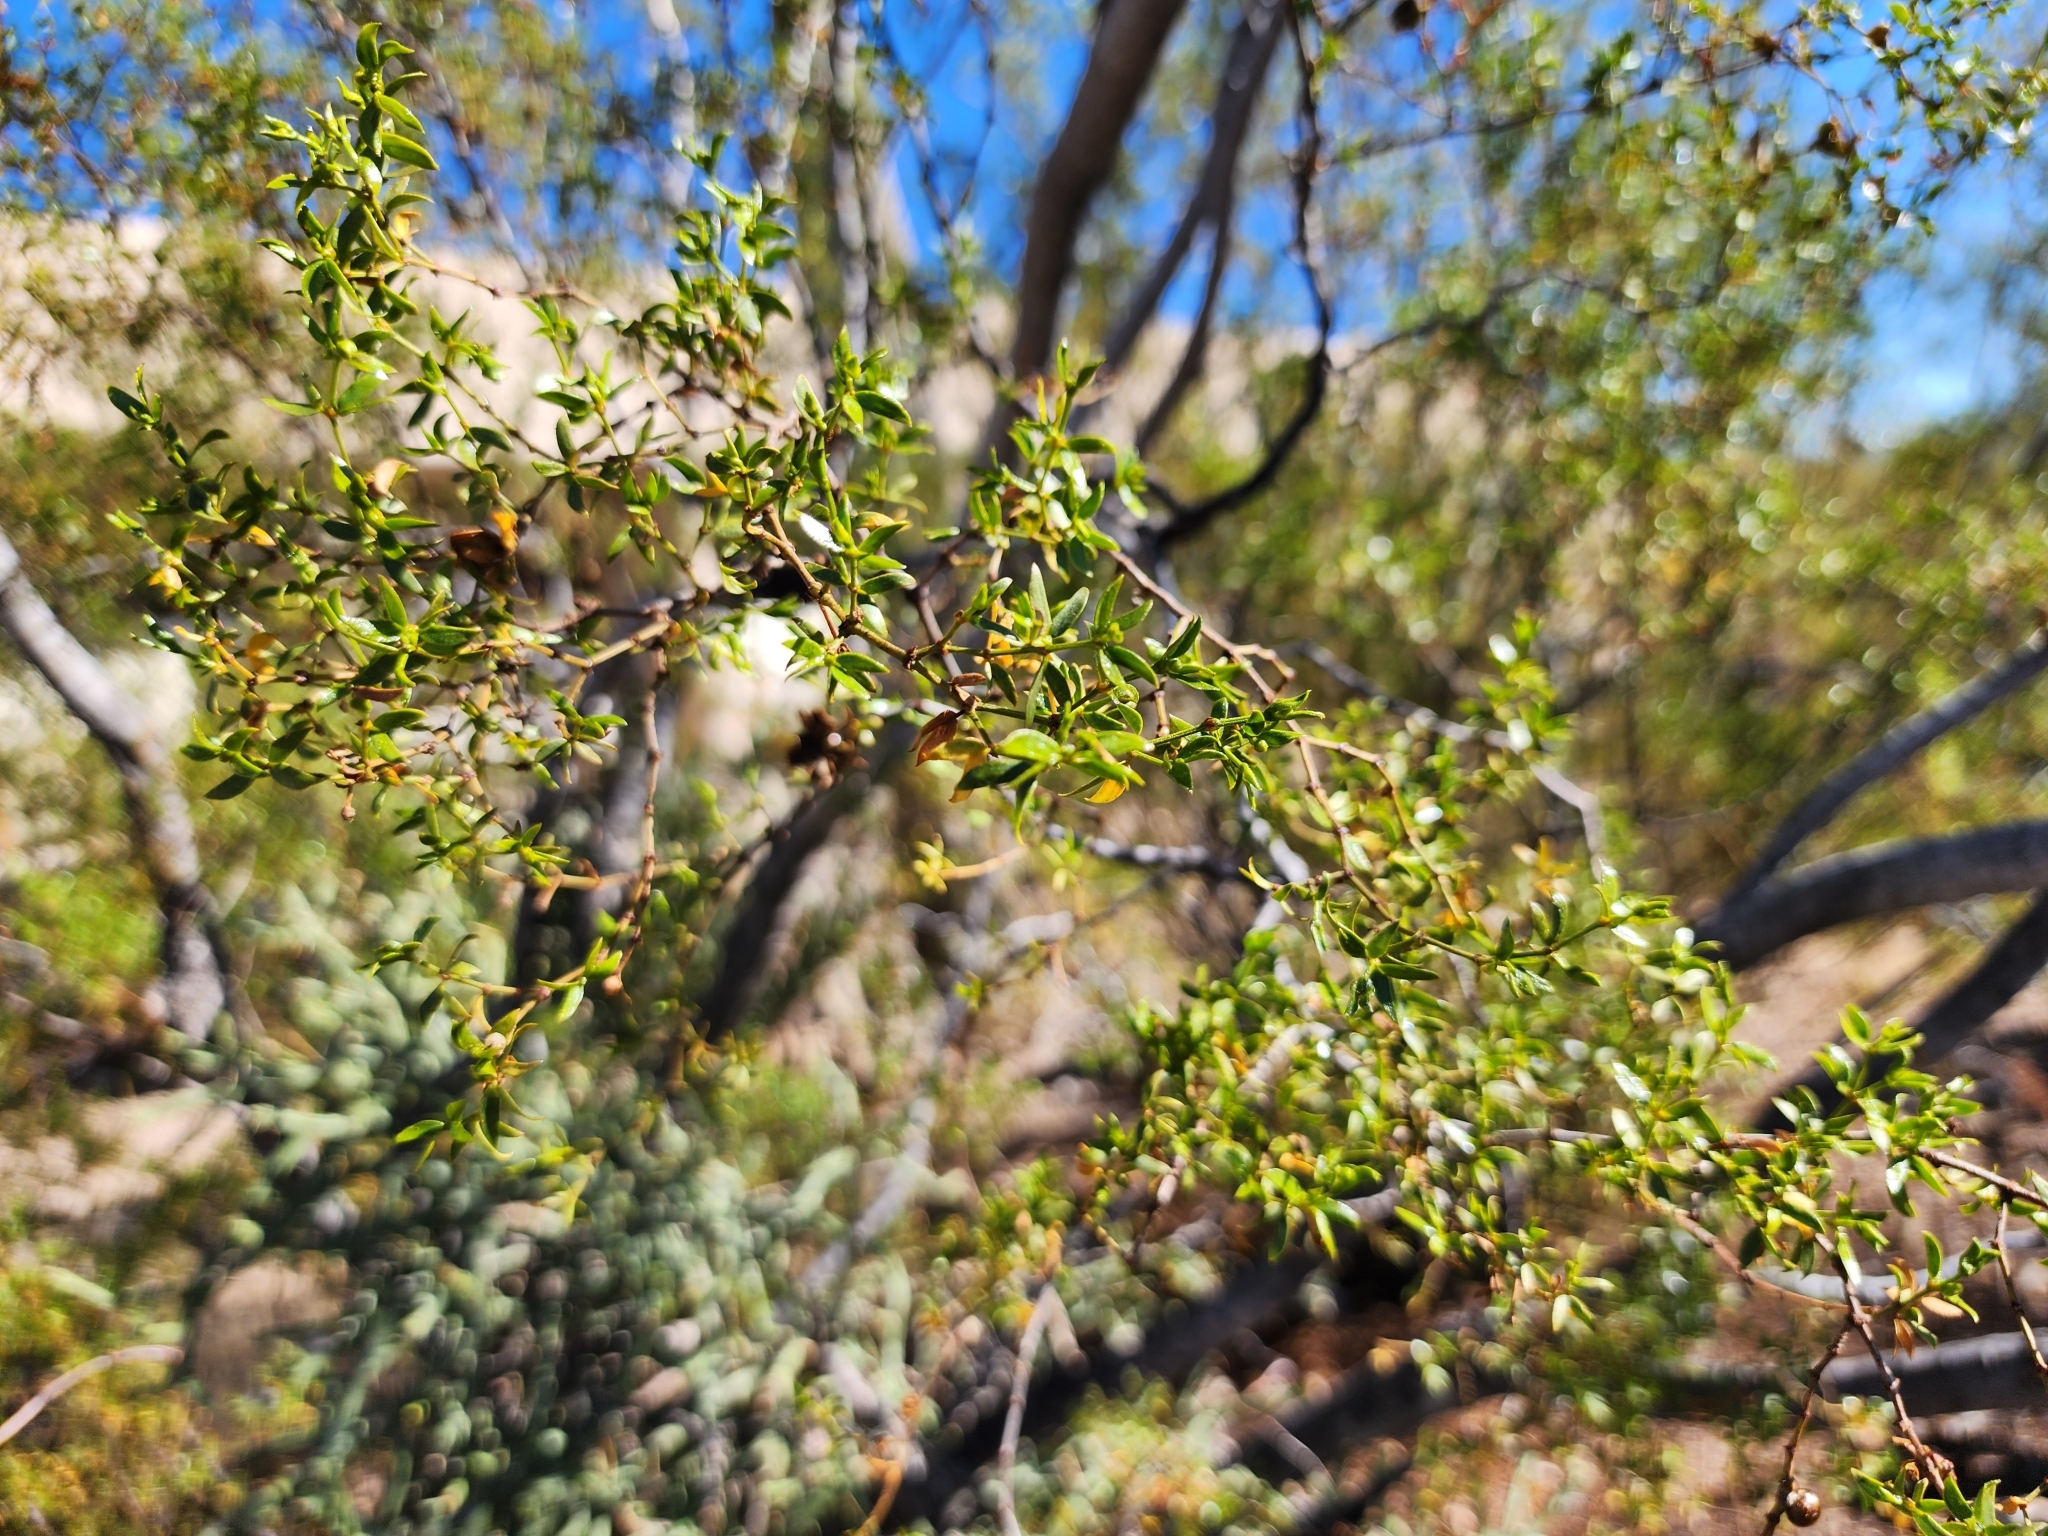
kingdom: Plantae
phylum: Tracheophyta
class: Magnoliopsida
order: Zygophyllales
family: Zygophyllaceae
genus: Larrea
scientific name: Larrea tridentata
